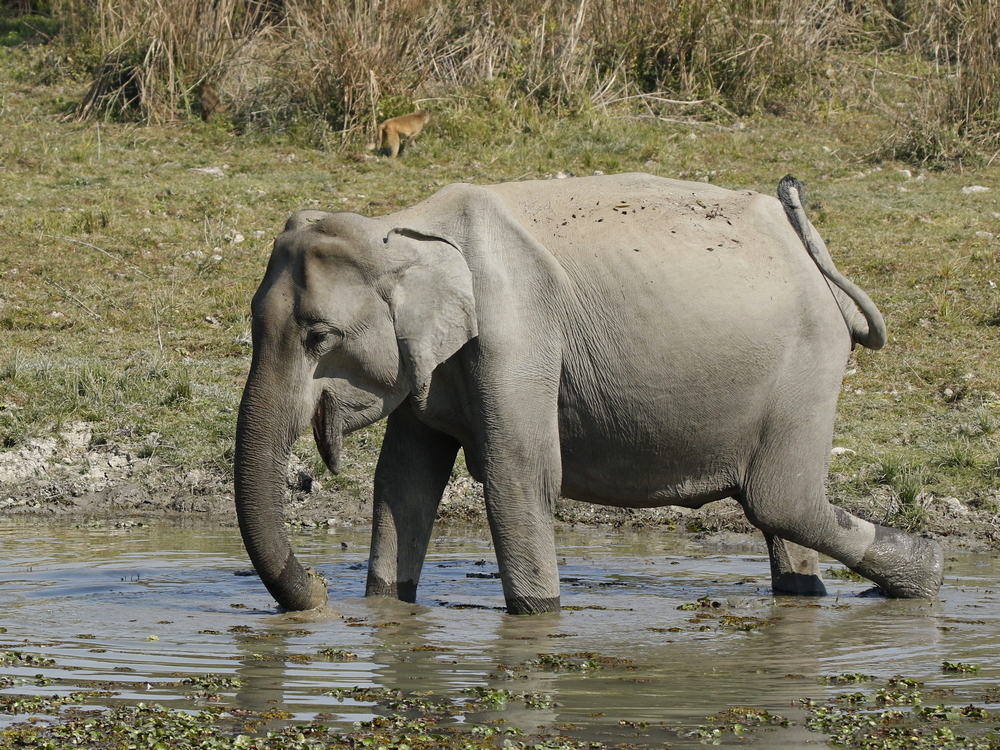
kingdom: Animalia
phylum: Chordata
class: Mammalia
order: Proboscidea
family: Elephantidae
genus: Elephas
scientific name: Elephas maximus
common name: Asian elephant
